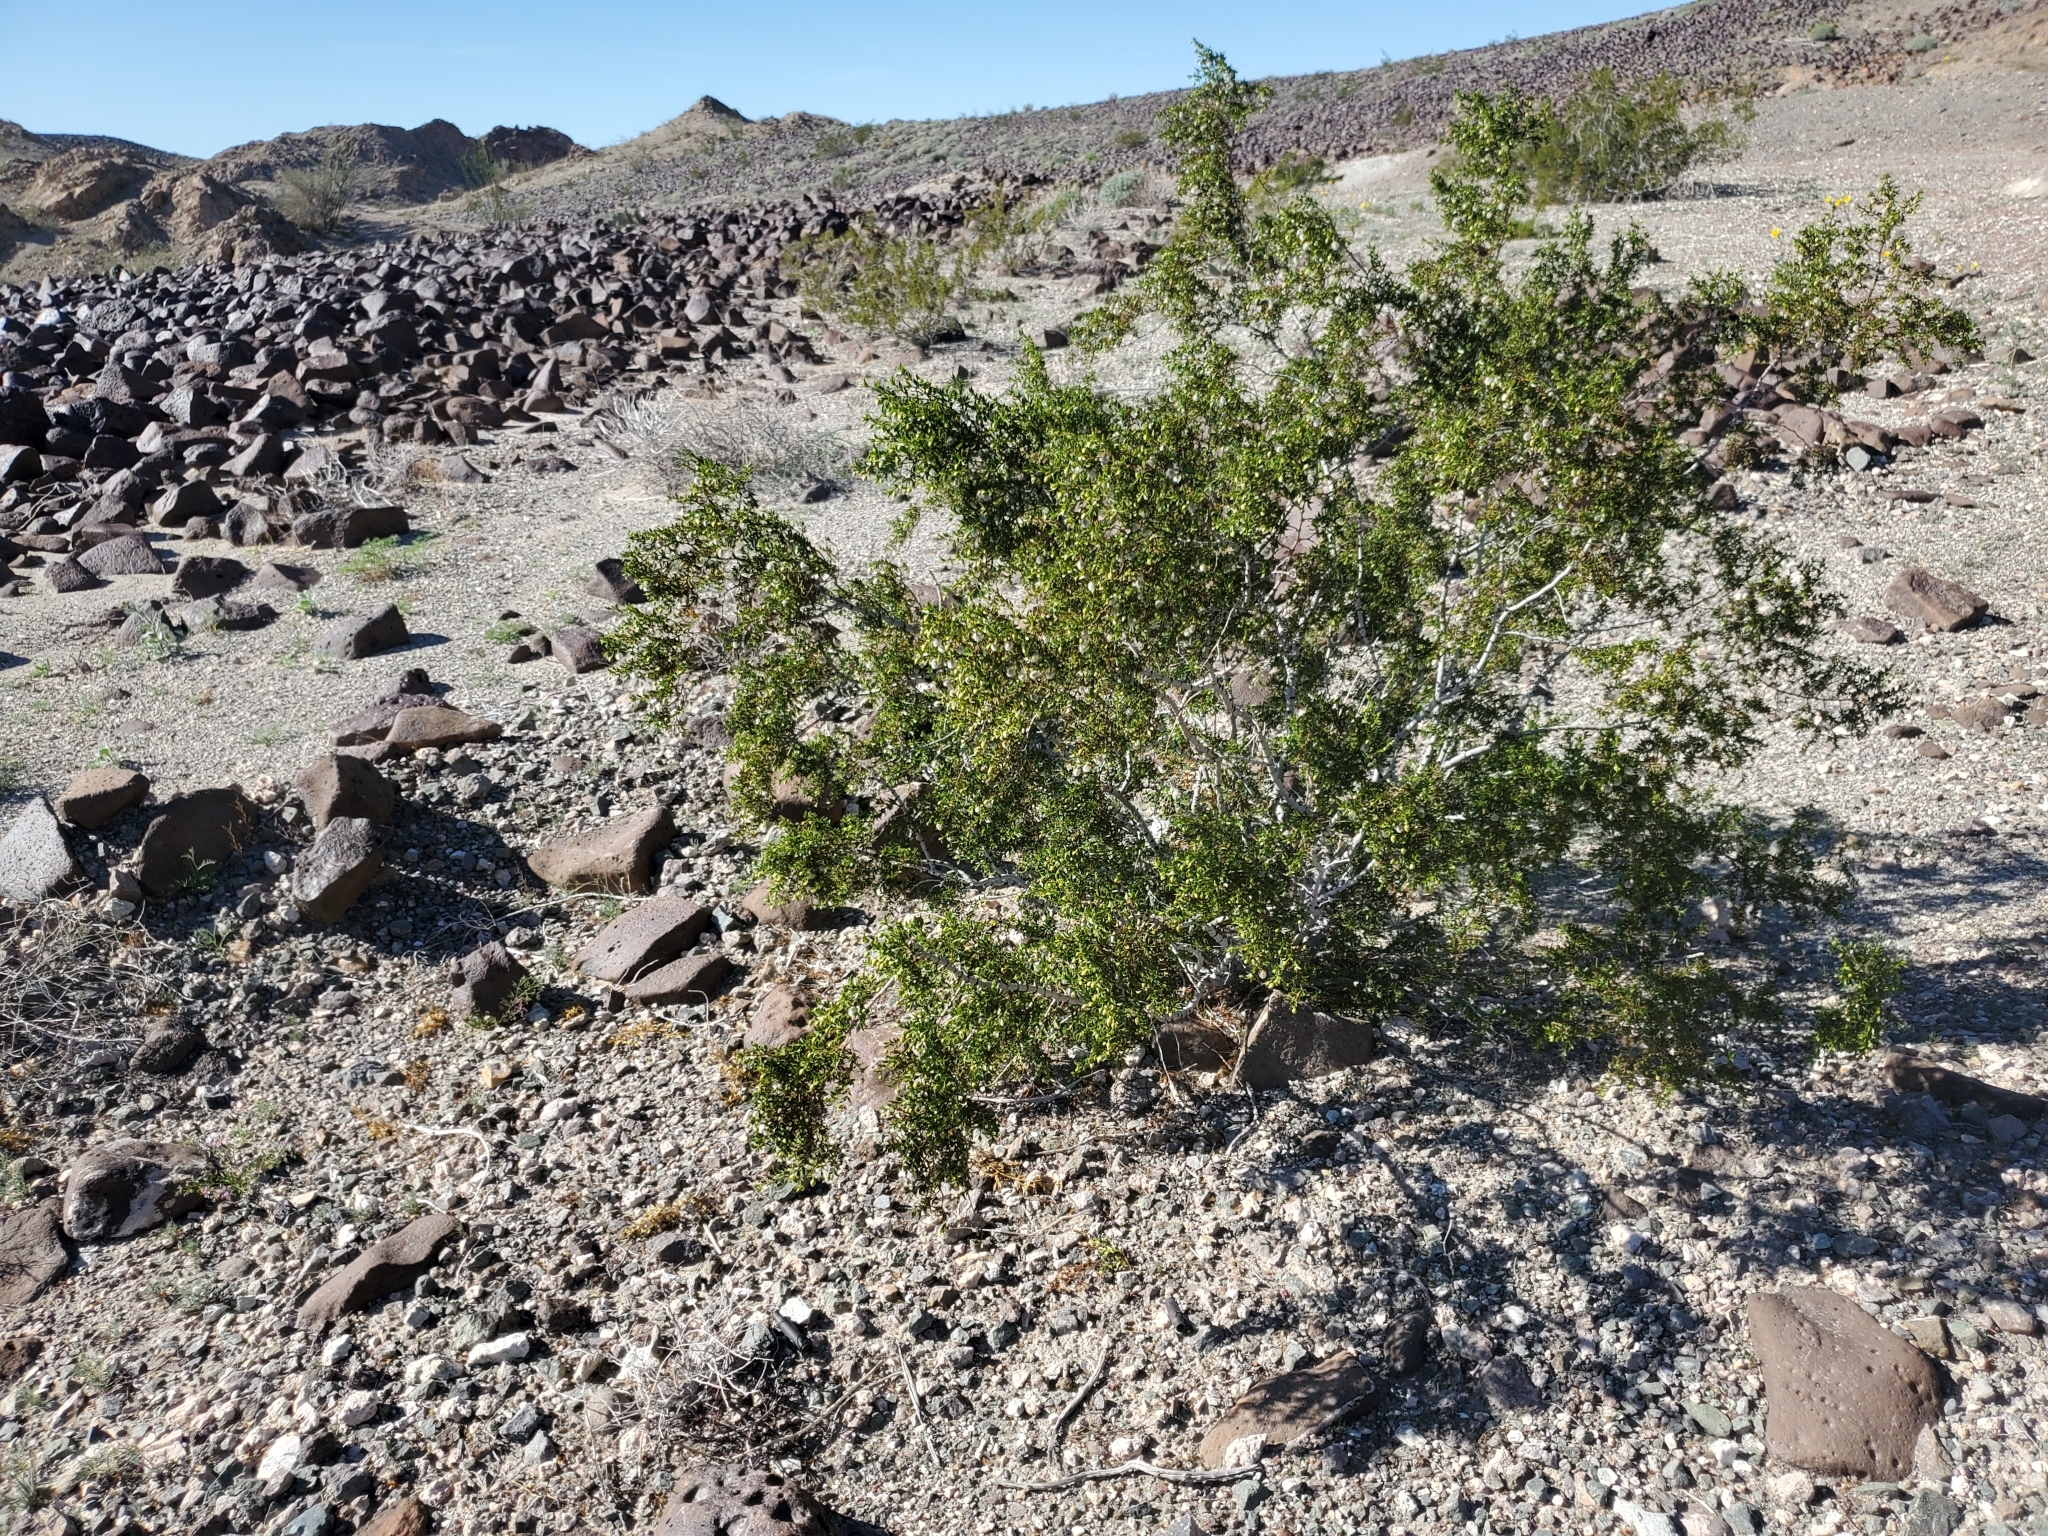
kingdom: Plantae
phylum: Tracheophyta
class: Magnoliopsida
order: Zygophyllales
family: Zygophyllaceae
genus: Larrea
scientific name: Larrea tridentata
